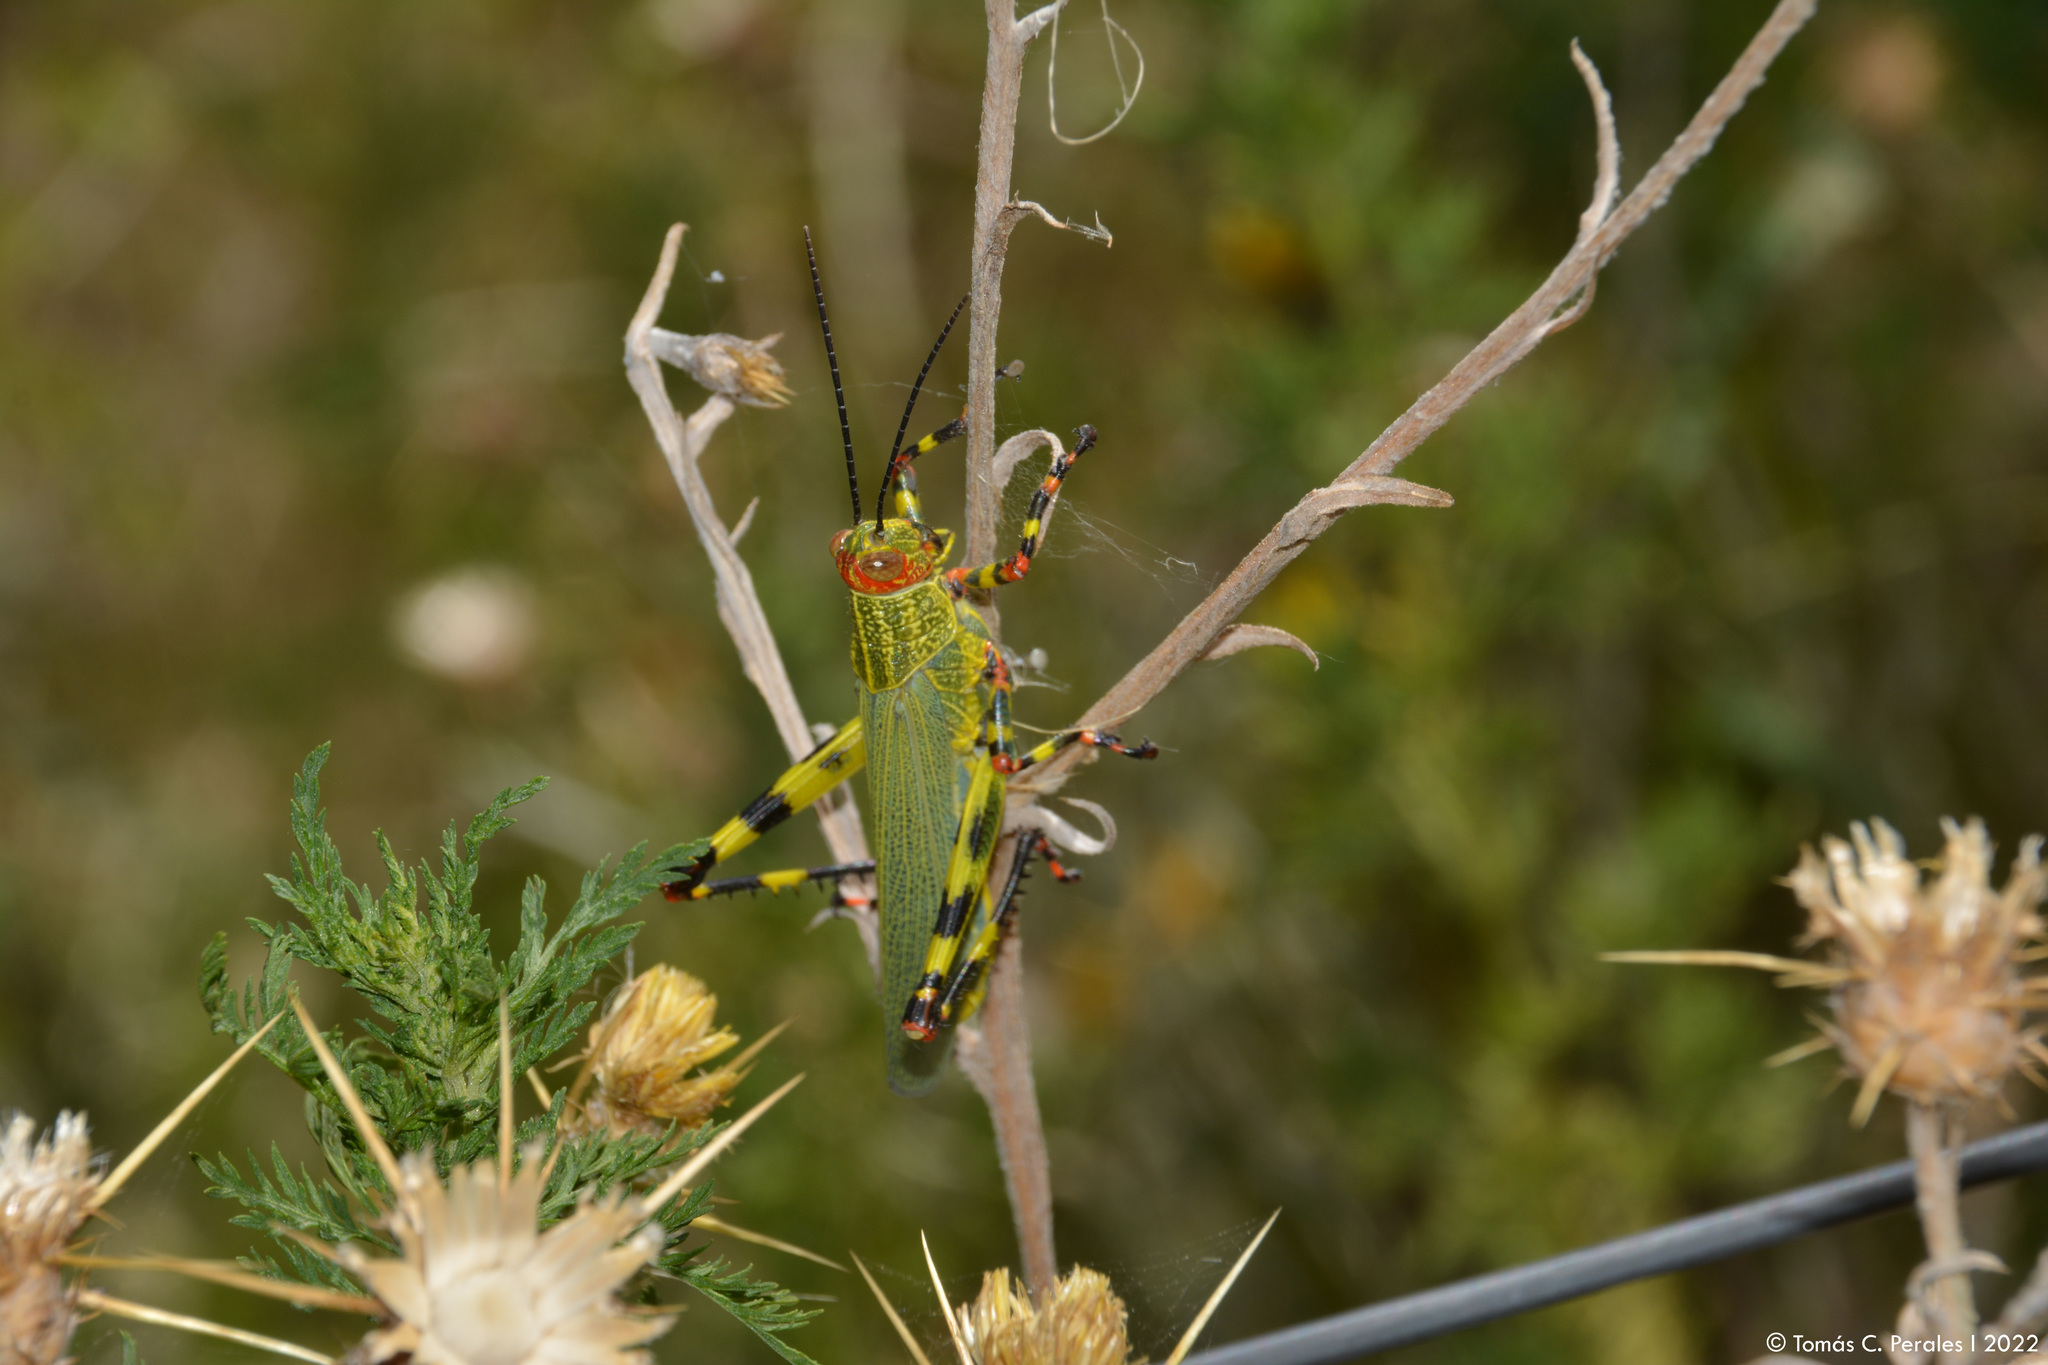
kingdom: Animalia
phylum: Arthropoda
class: Insecta
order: Orthoptera
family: Romaleidae
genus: Zoniopoda
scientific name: Zoniopoda tarsata
